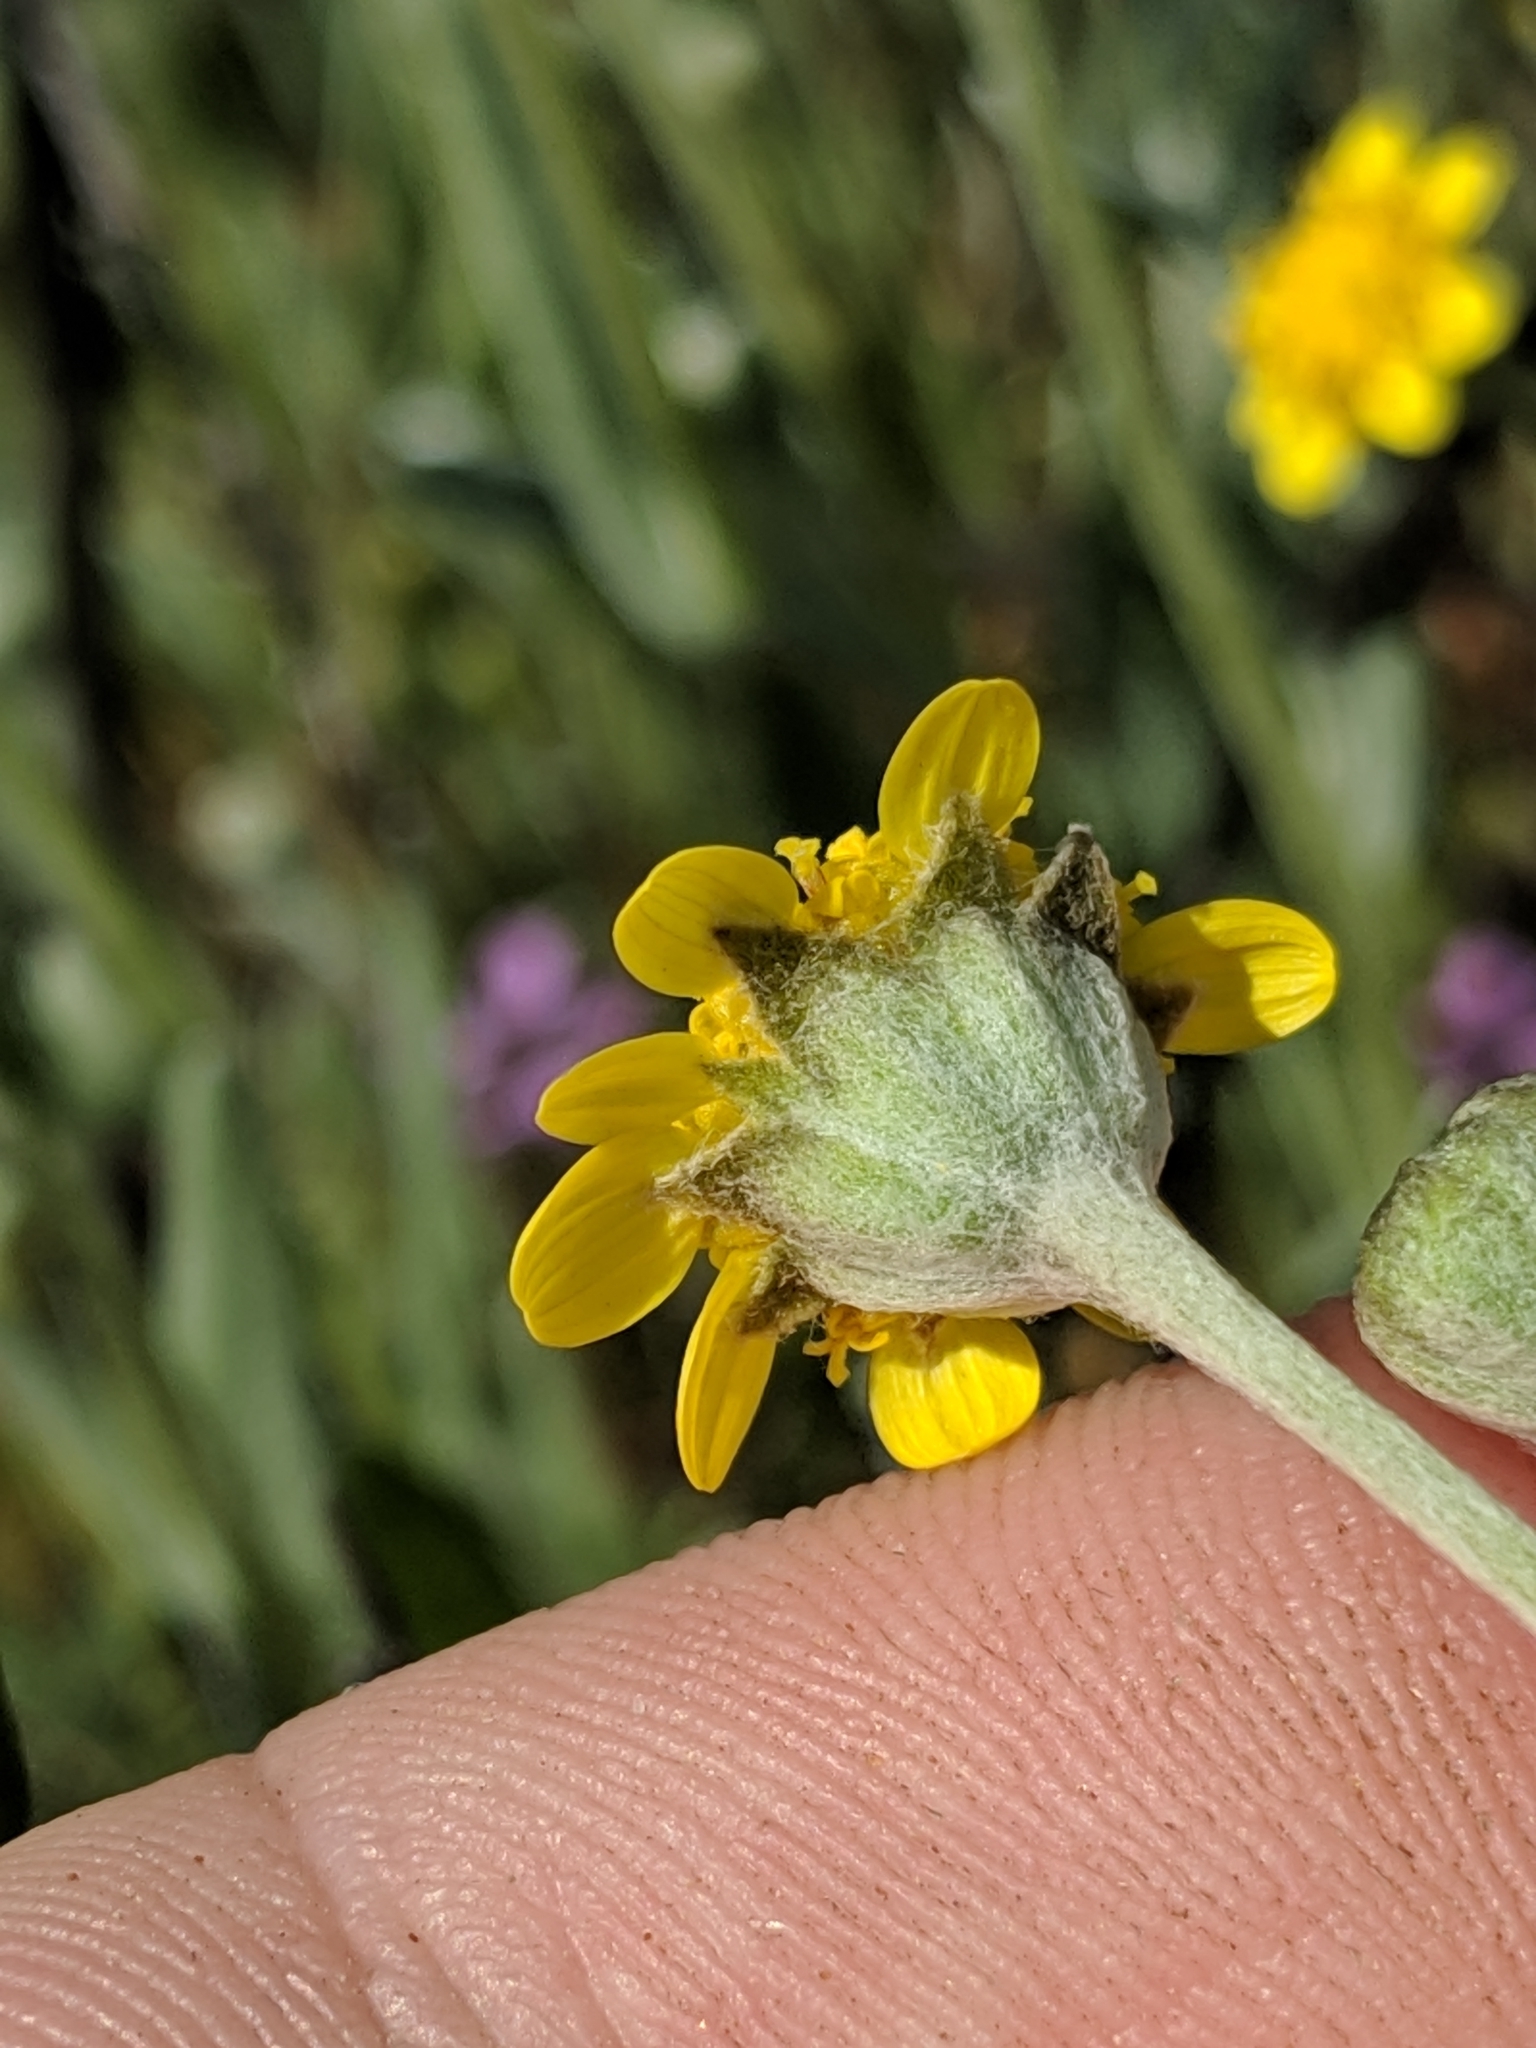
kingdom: Plantae
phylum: Tracheophyta
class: Magnoliopsida
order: Asterales
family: Asteraceae
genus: Monolopia
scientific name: Monolopia stricta
